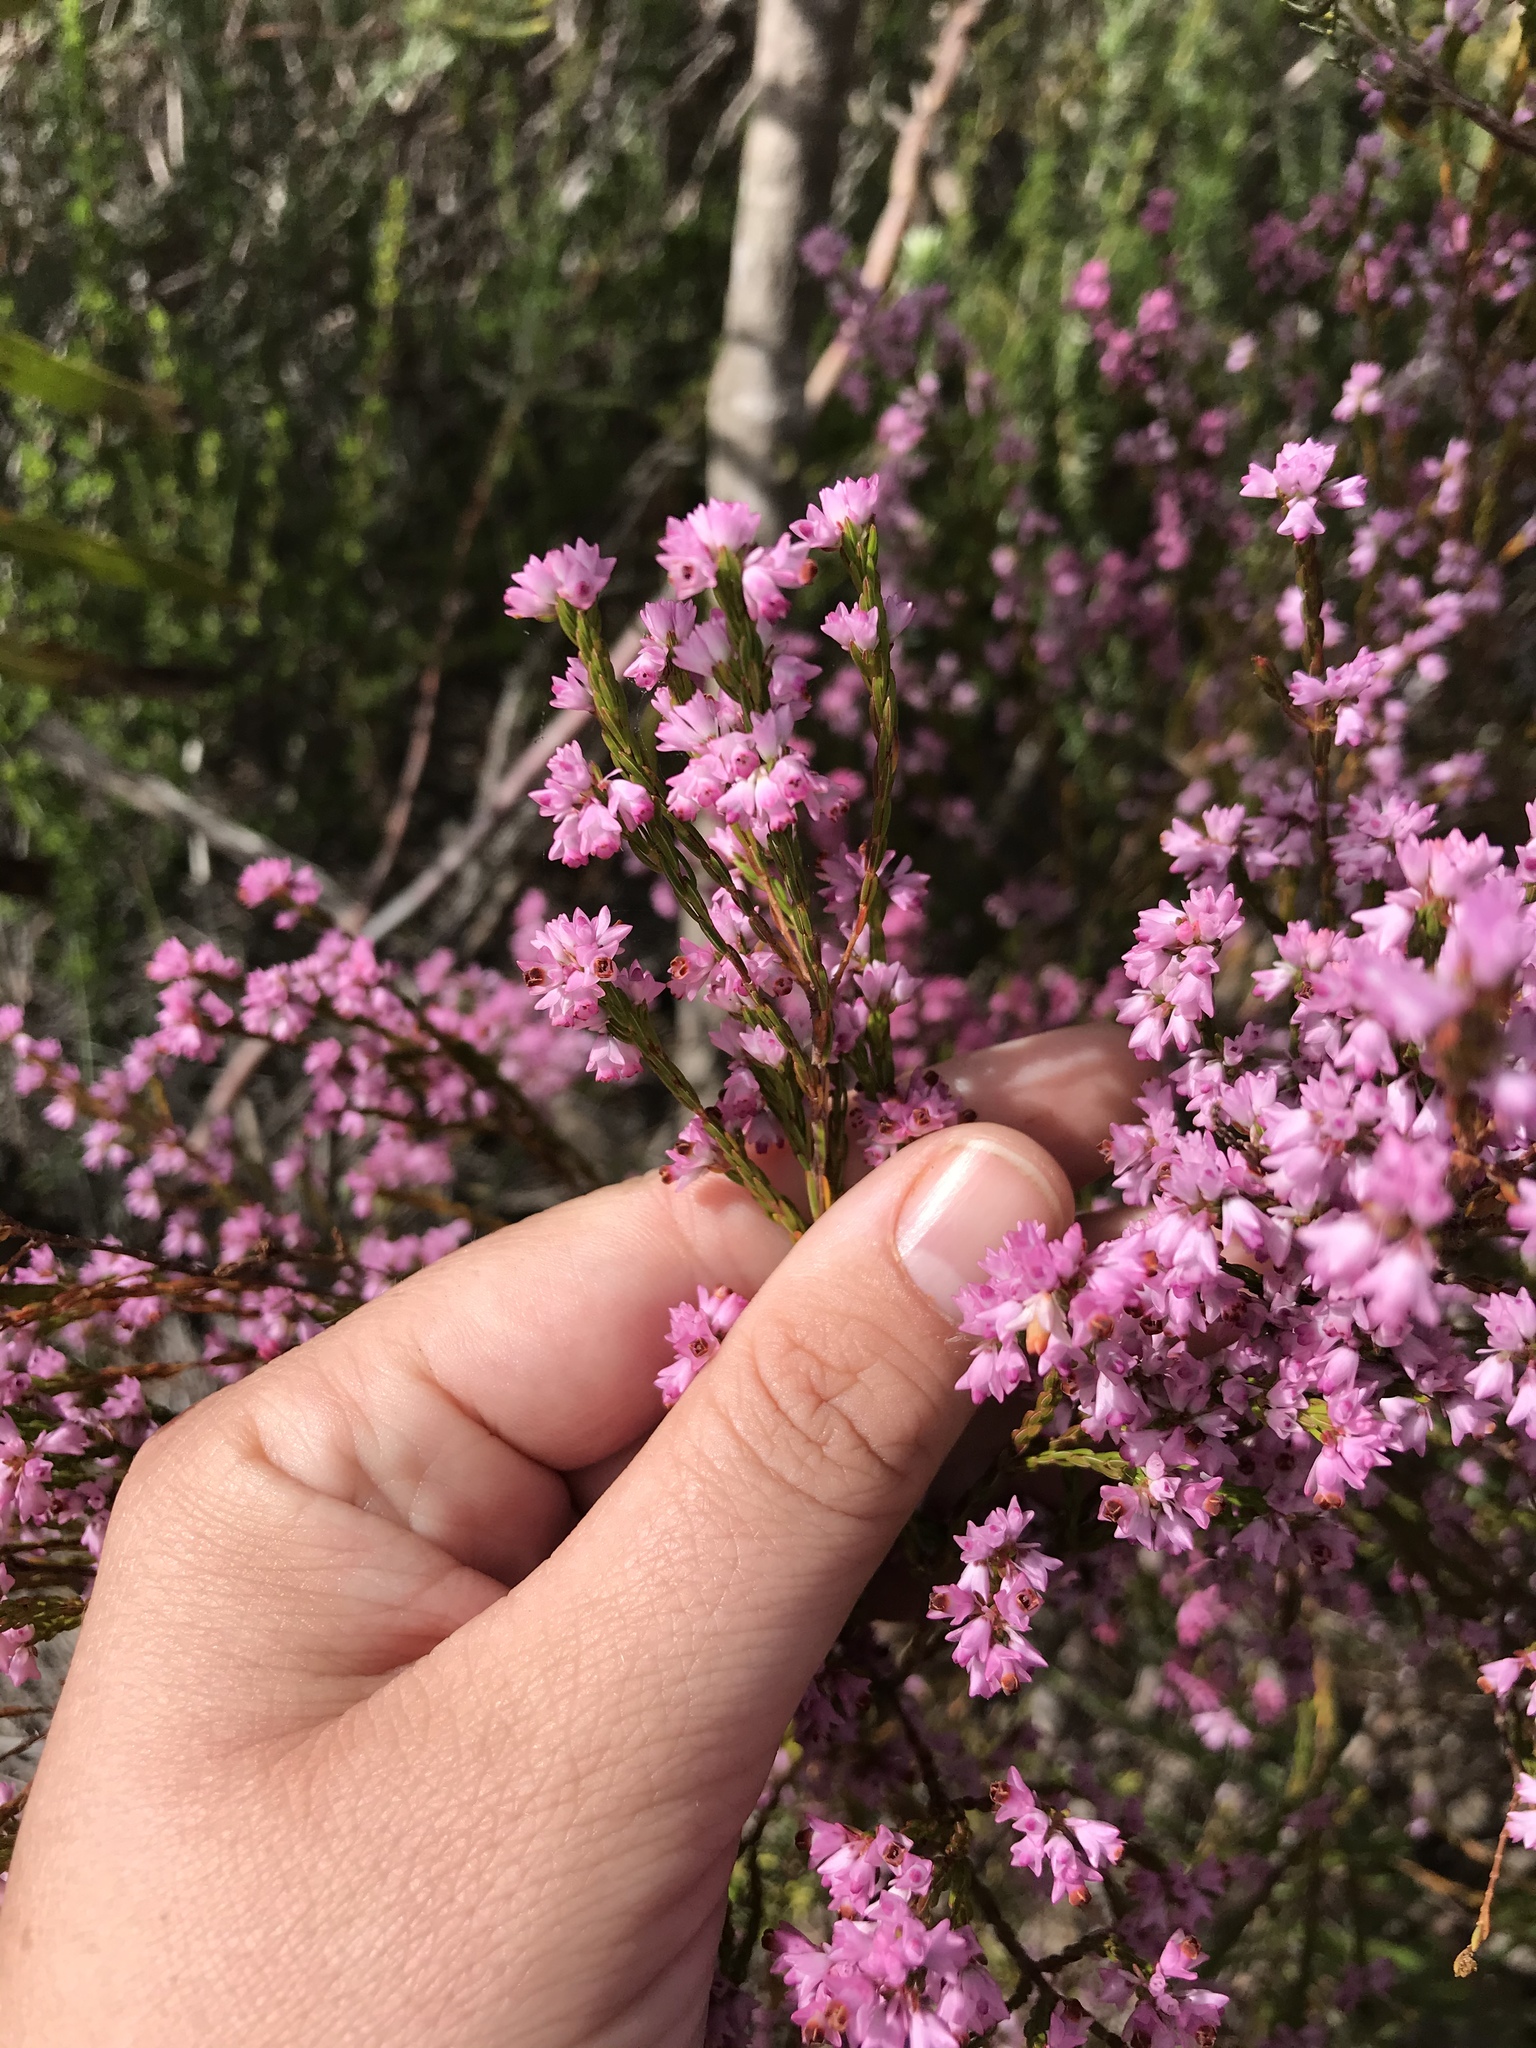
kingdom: Plantae
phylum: Tracheophyta
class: Magnoliopsida
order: Ericales
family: Ericaceae
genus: Erica
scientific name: Erica corifolia
